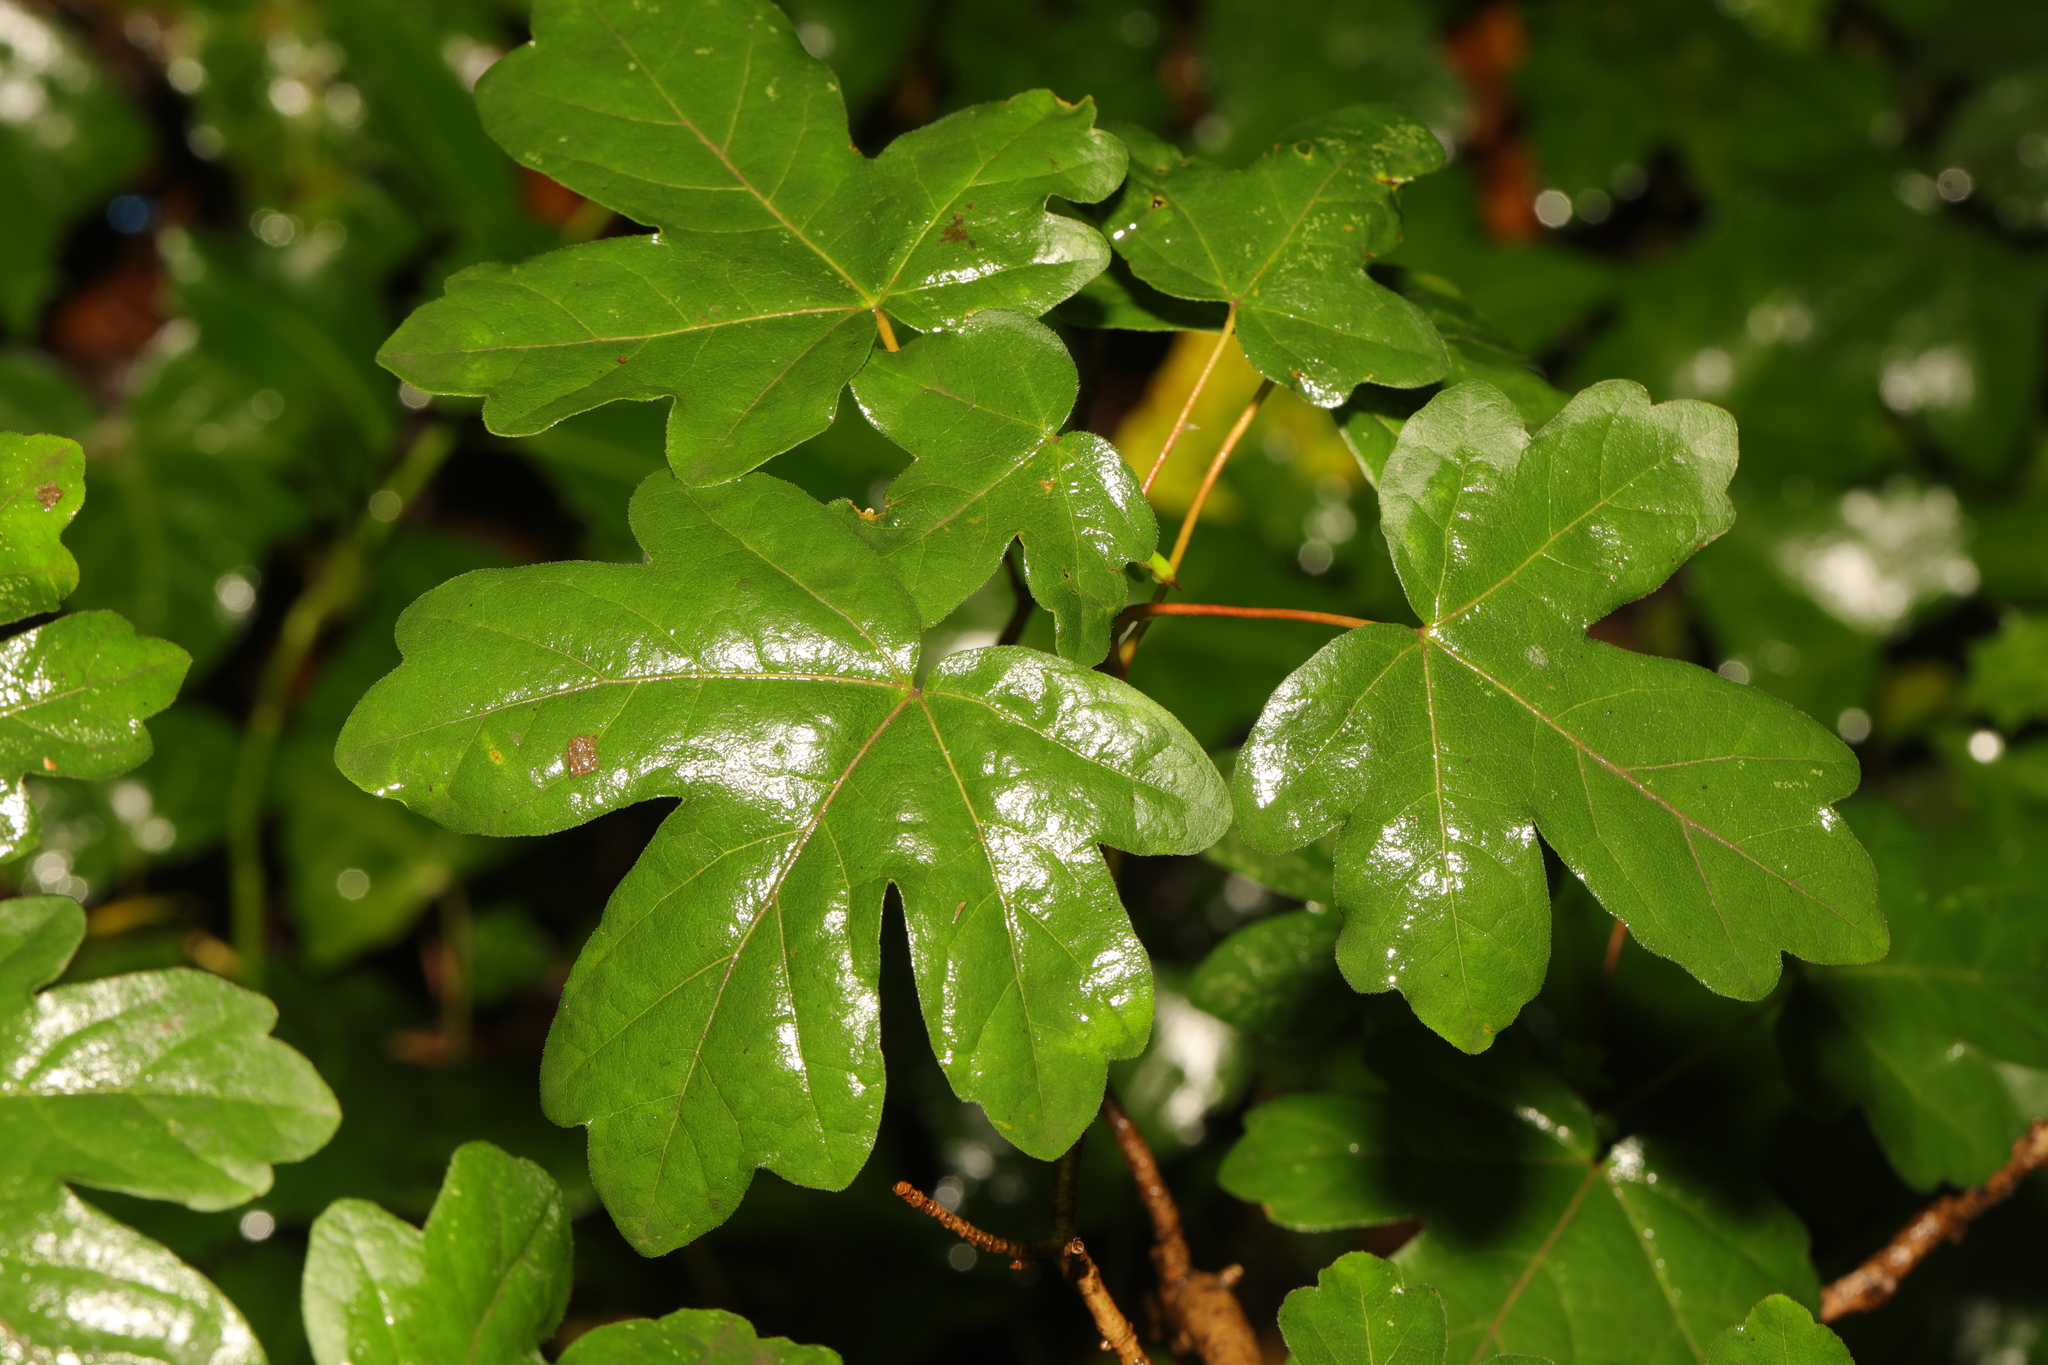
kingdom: Plantae
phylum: Tracheophyta
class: Magnoliopsida
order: Sapindales
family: Sapindaceae
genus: Acer
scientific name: Acer campestre
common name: Field maple
